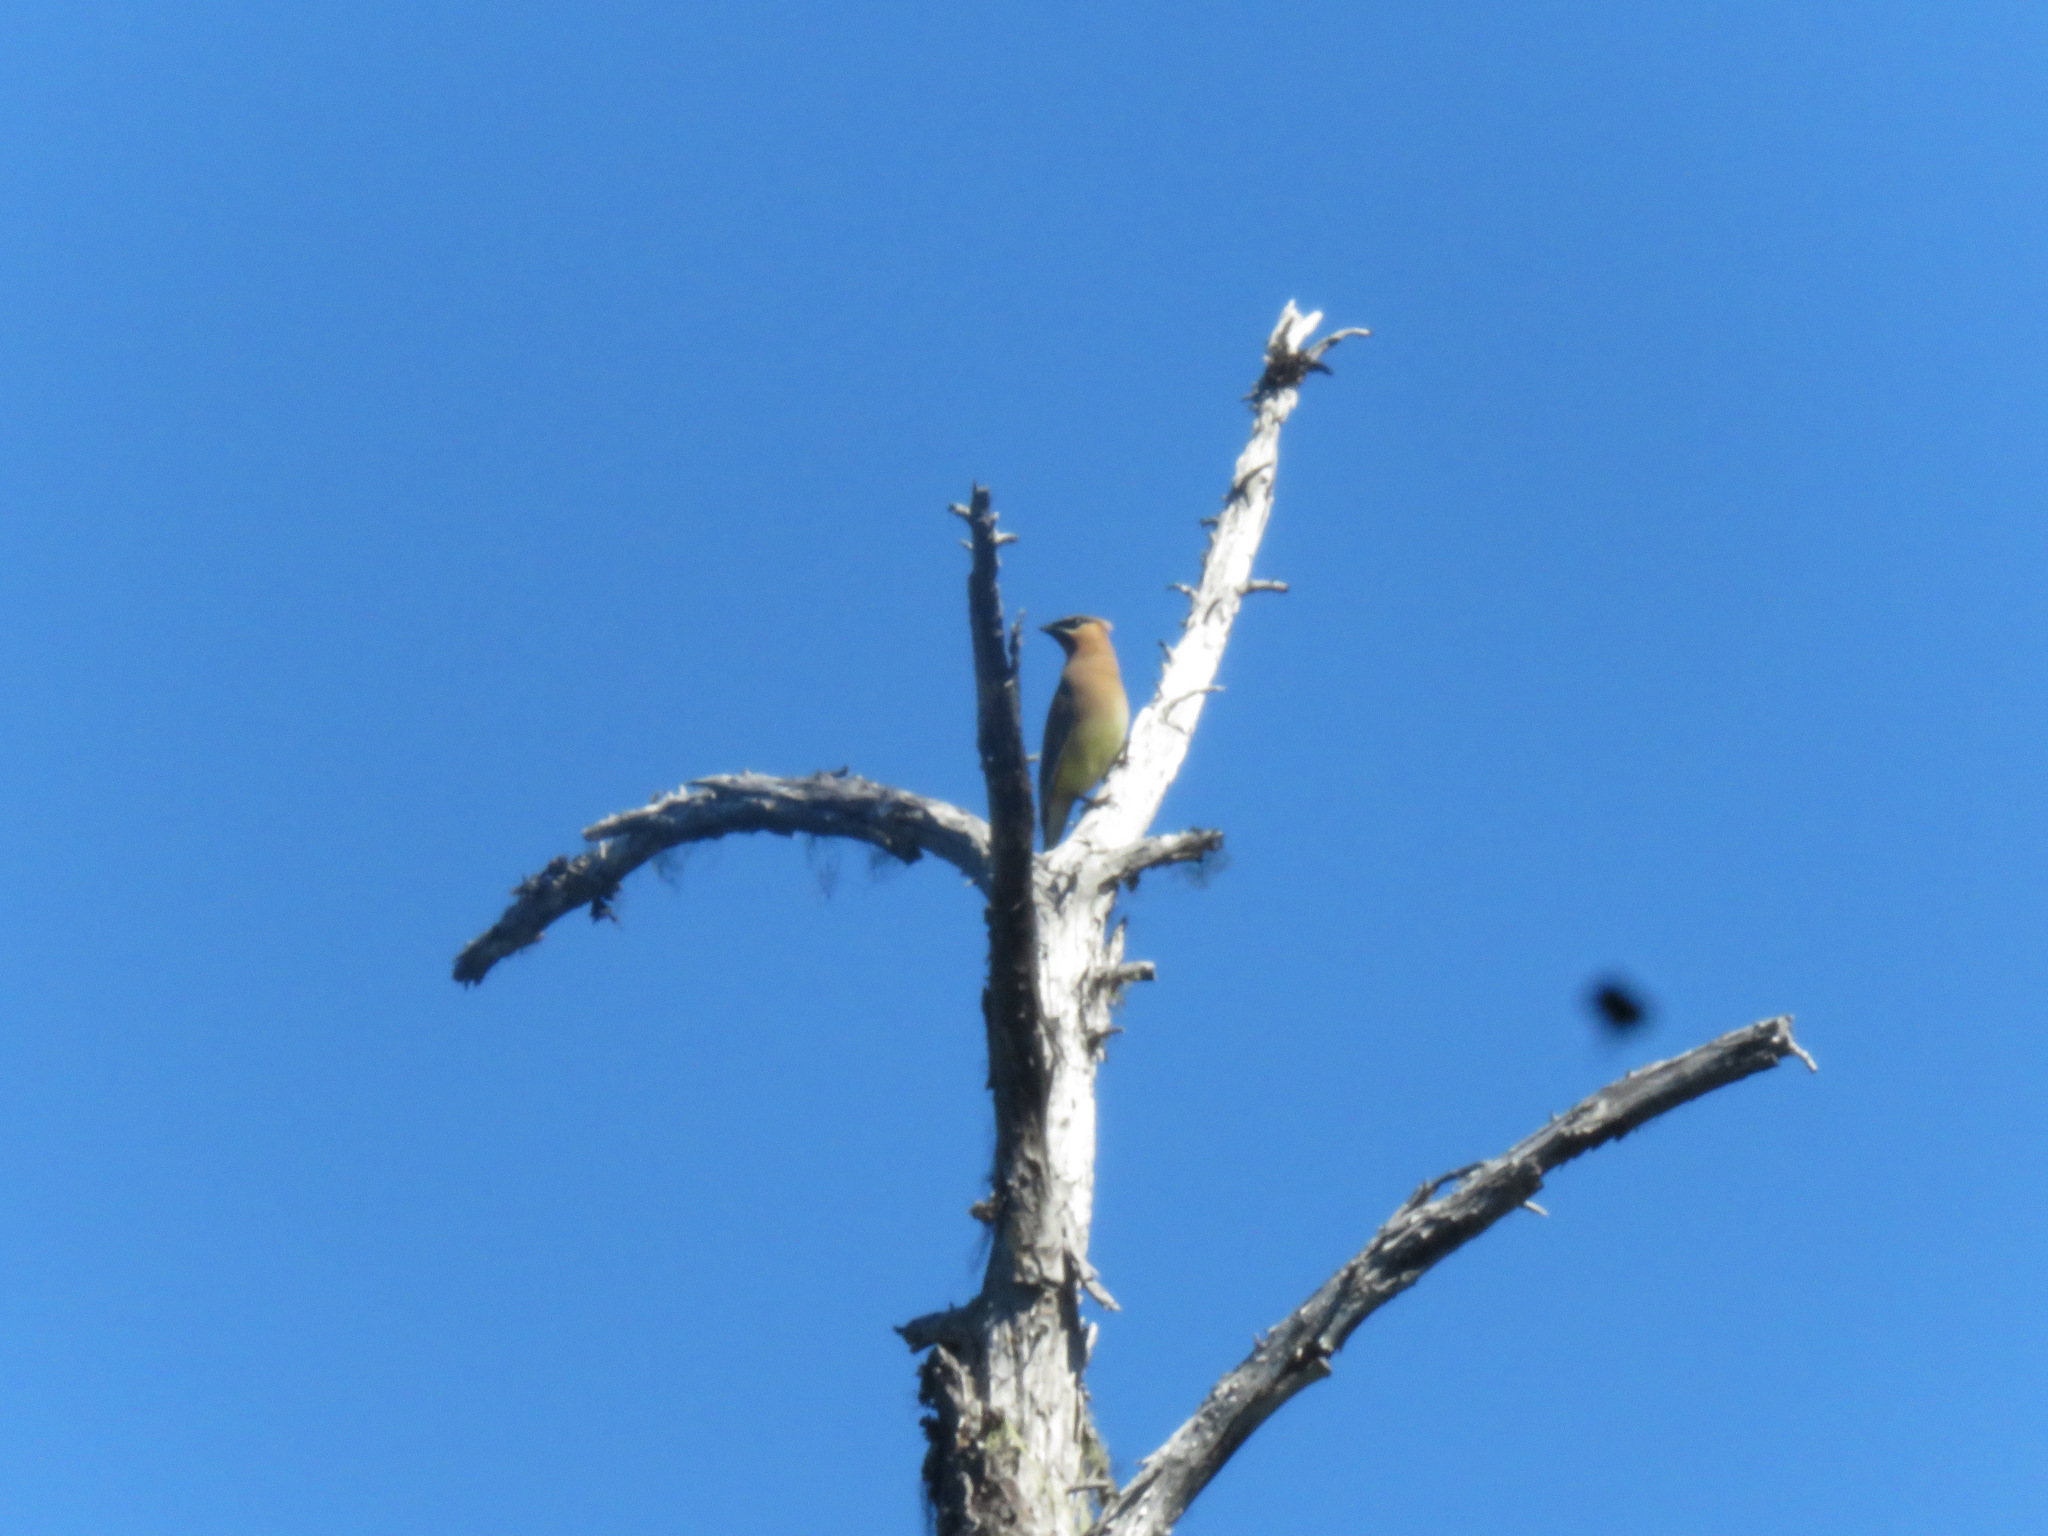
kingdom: Animalia
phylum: Chordata
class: Aves
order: Passeriformes
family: Bombycillidae
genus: Bombycilla
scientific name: Bombycilla cedrorum
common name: Cedar waxwing
